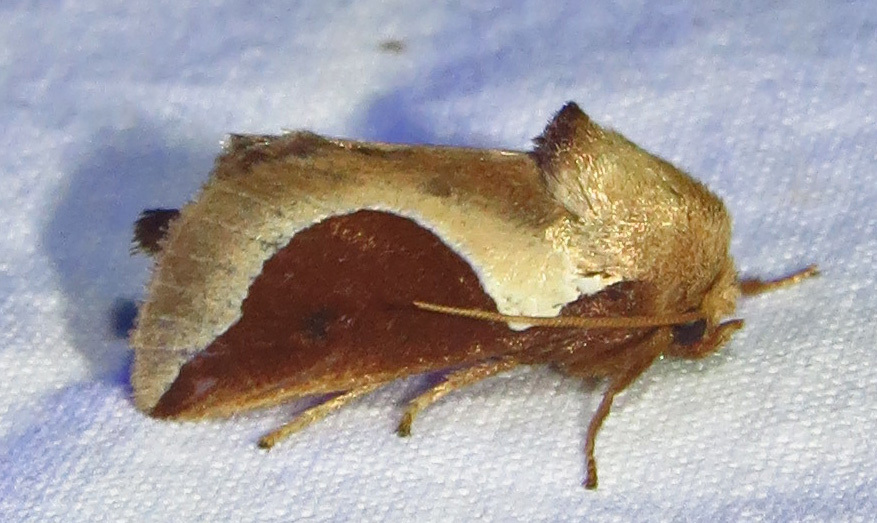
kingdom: Animalia
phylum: Arthropoda
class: Insecta
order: Lepidoptera
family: Limacodidae
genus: Prolimacodes
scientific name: Prolimacodes badia
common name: Skiff moth
